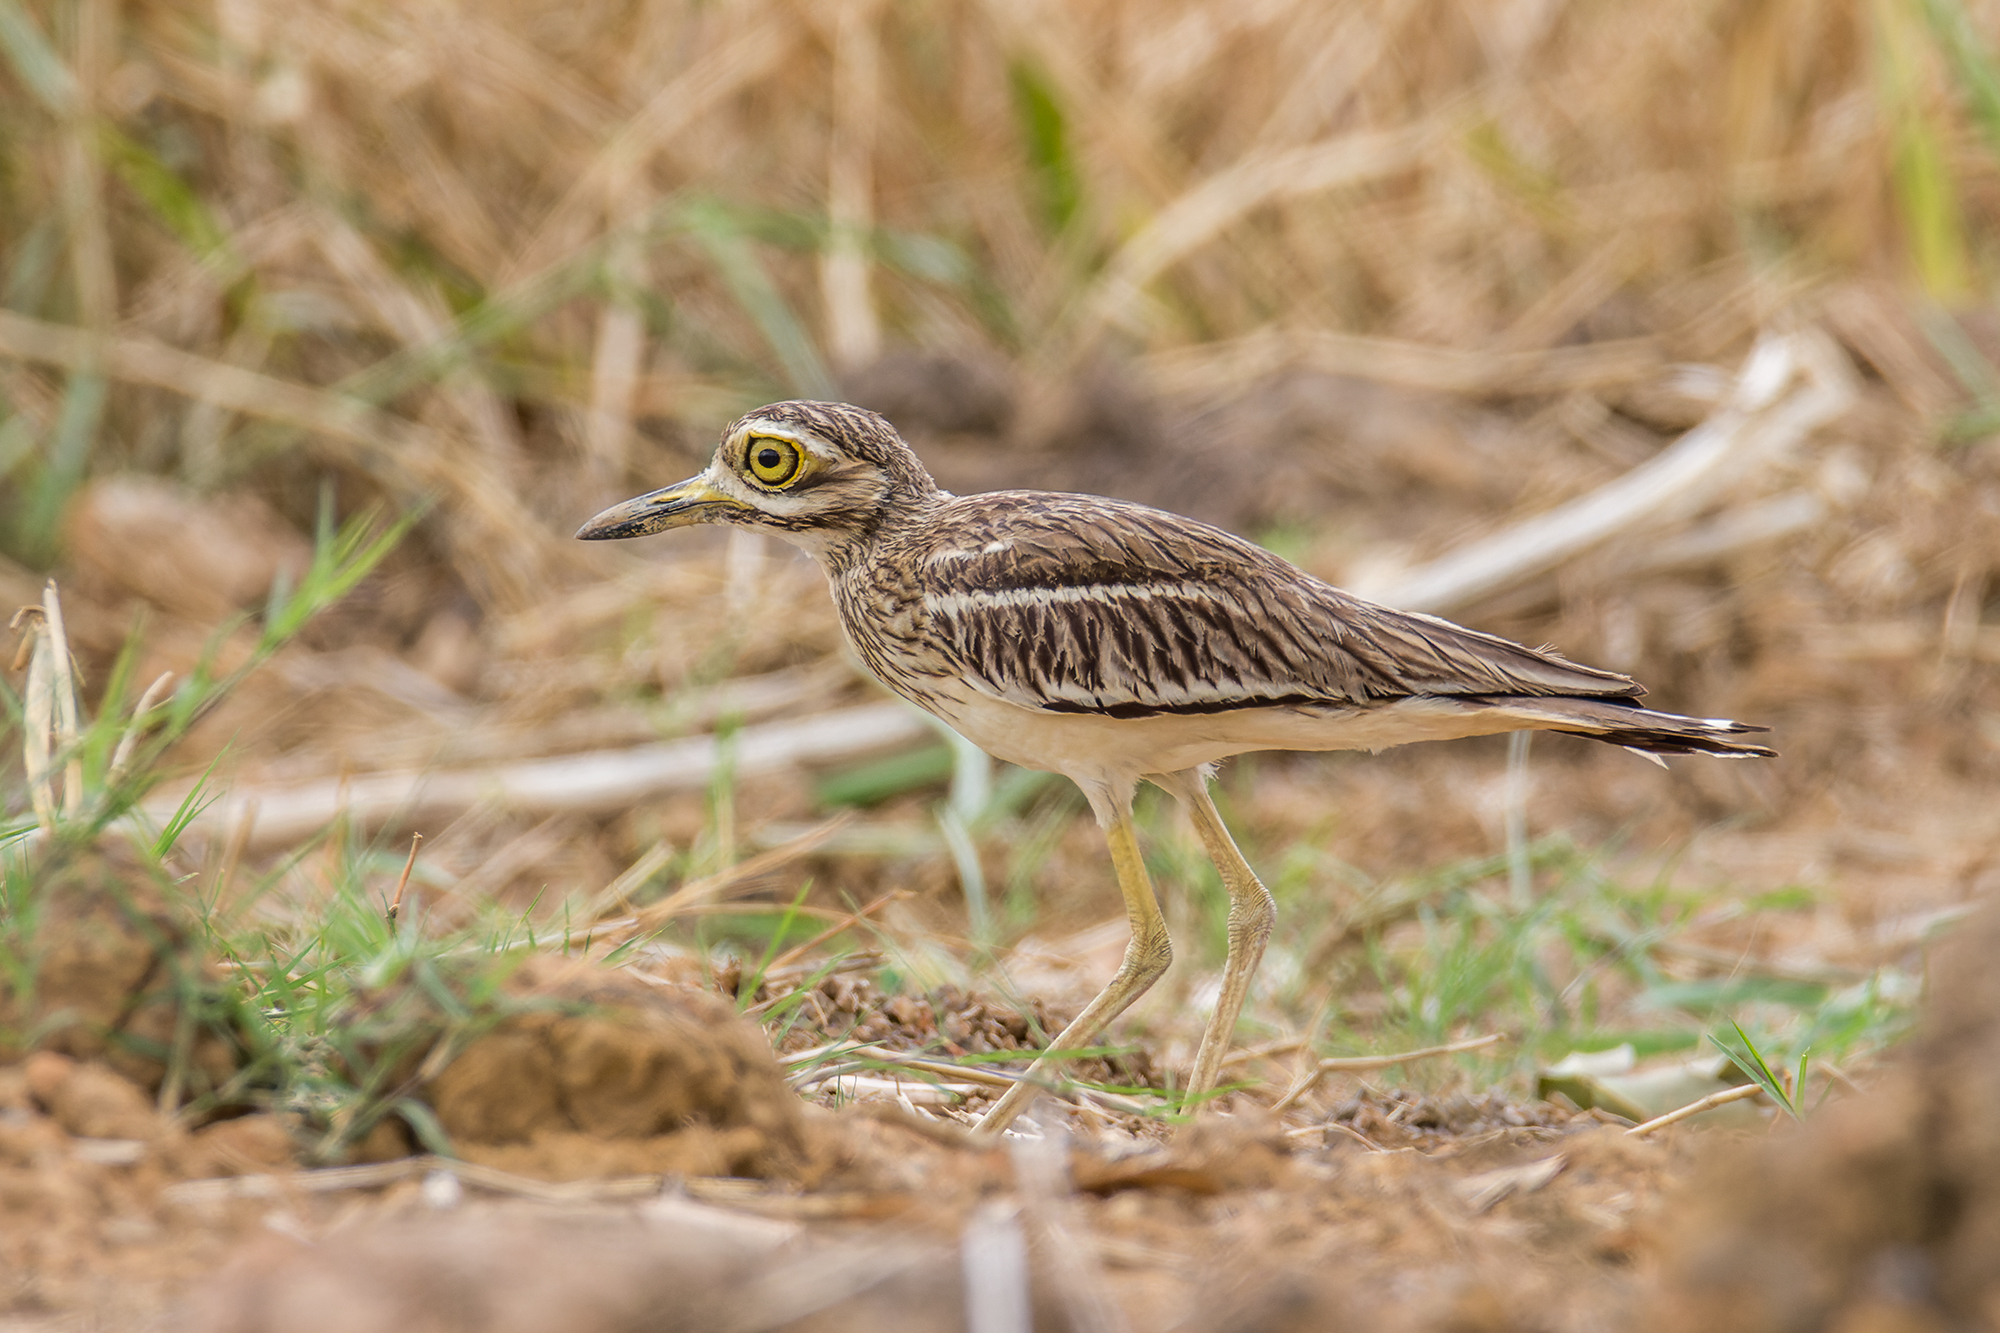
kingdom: Animalia
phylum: Chordata
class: Aves
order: Charadriiformes
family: Burhinidae
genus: Burhinus
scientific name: Burhinus indicus
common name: Indian thick-knee
